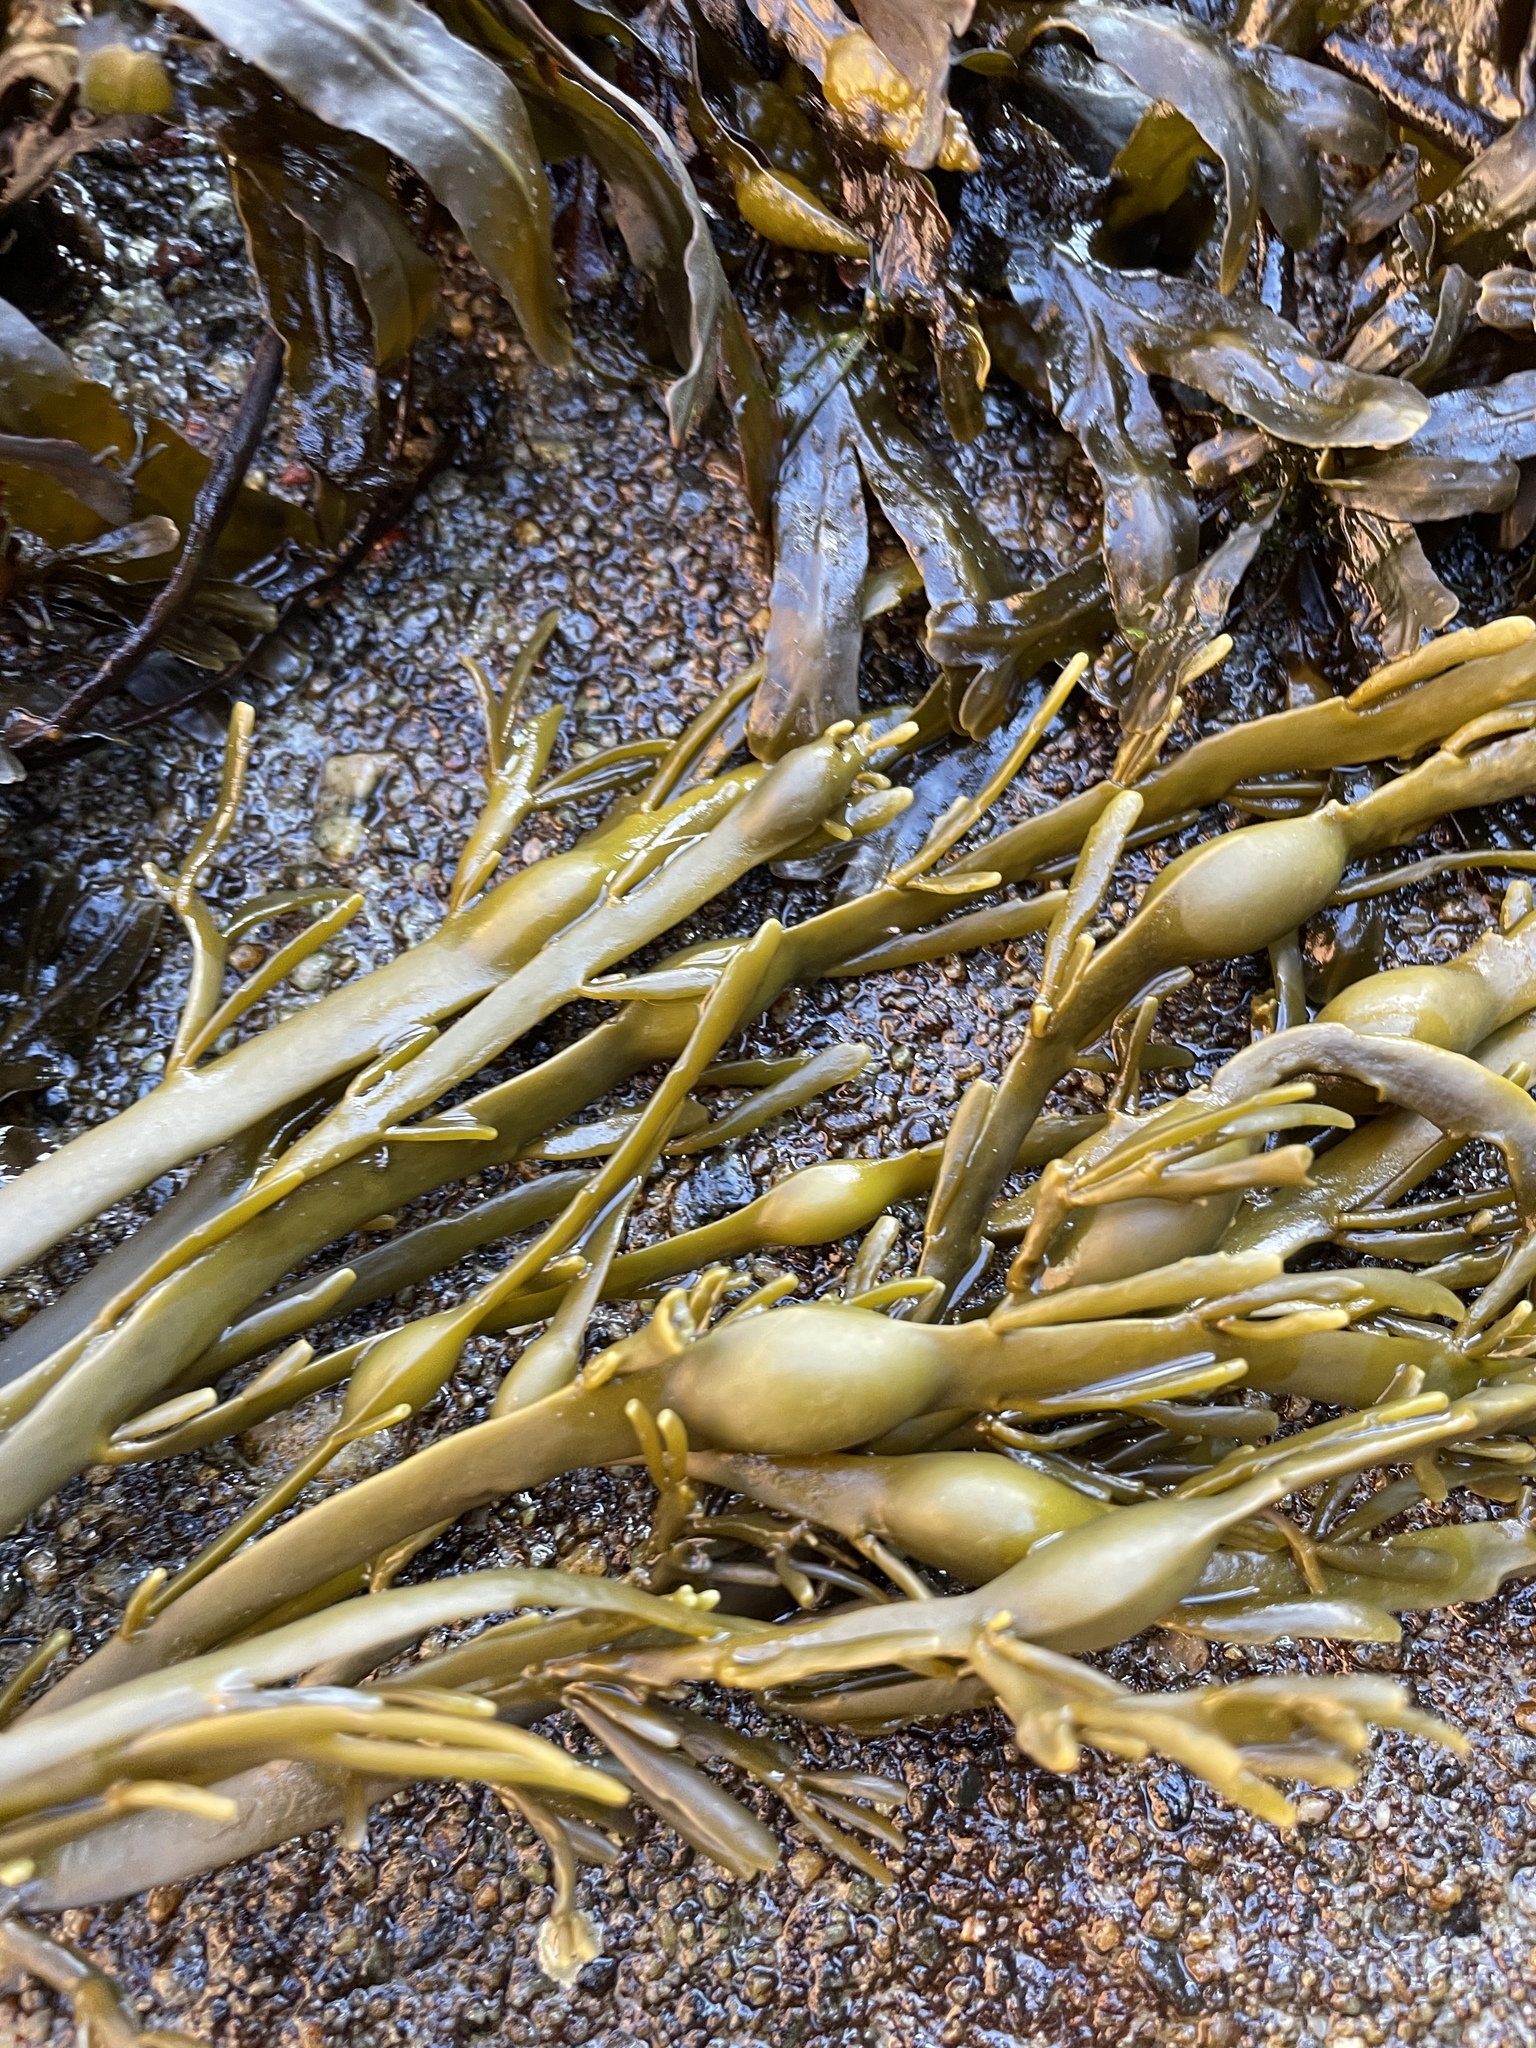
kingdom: Chromista
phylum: Ochrophyta
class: Phaeophyceae
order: Fucales
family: Fucaceae
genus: Ascophyllum
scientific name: Ascophyllum nodosum
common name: Knotted wrack
